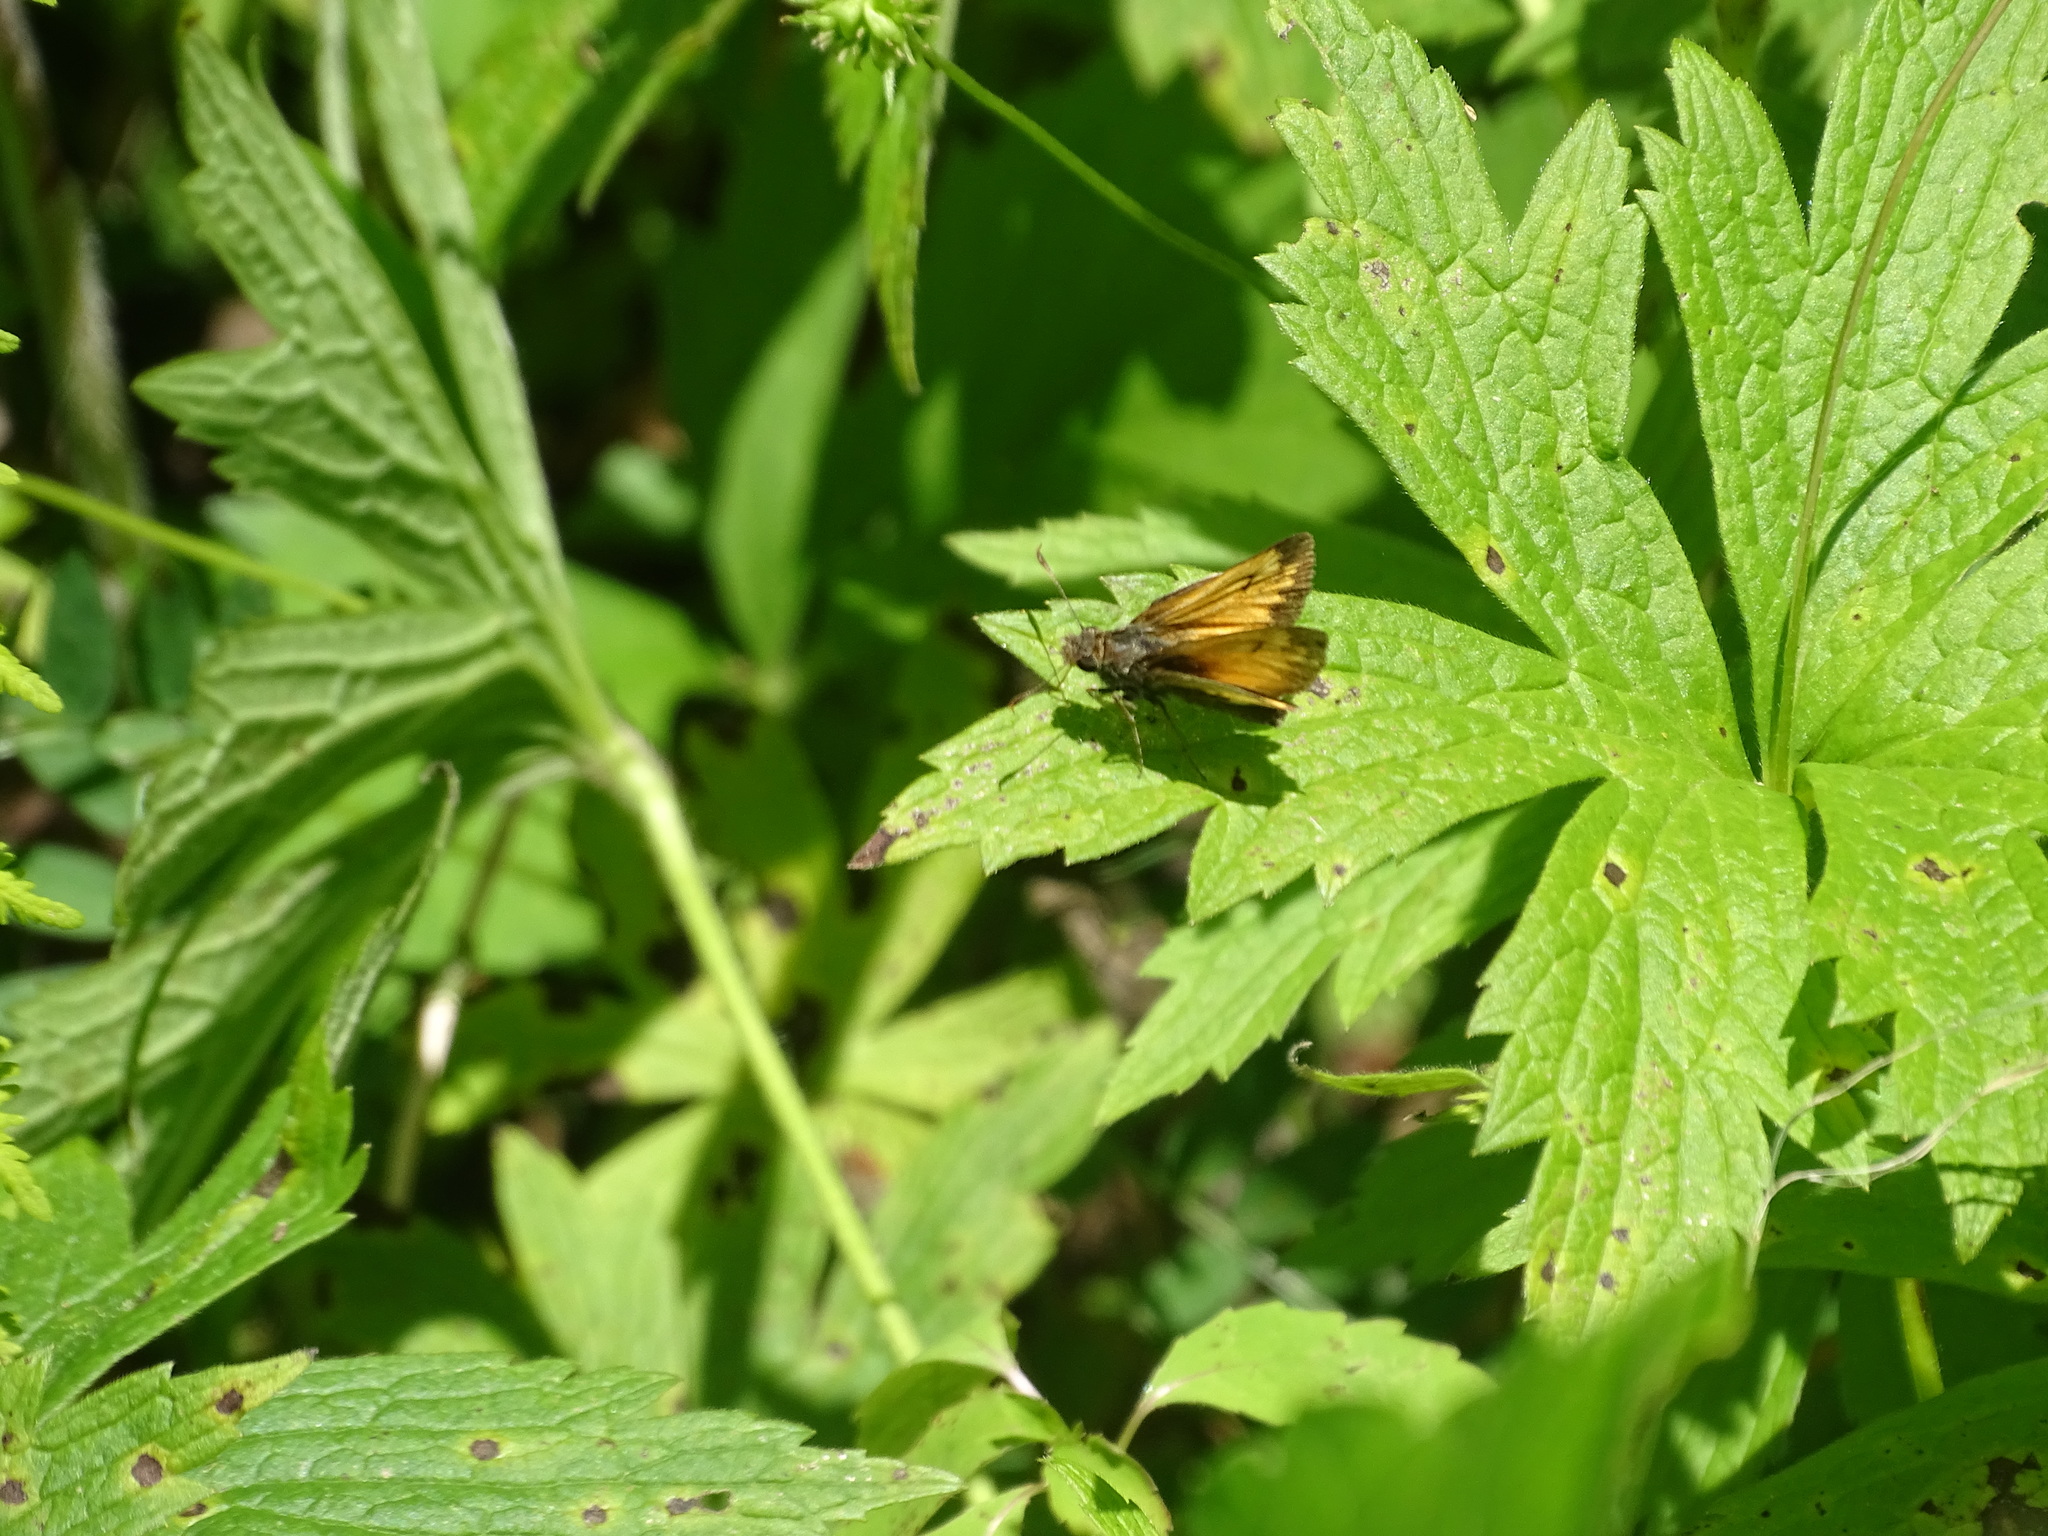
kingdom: Animalia
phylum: Arthropoda
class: Insecta
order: Lepidoptera
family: Hesperiidae
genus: Lon
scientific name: Lon hobomok
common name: Hobomok skipper
